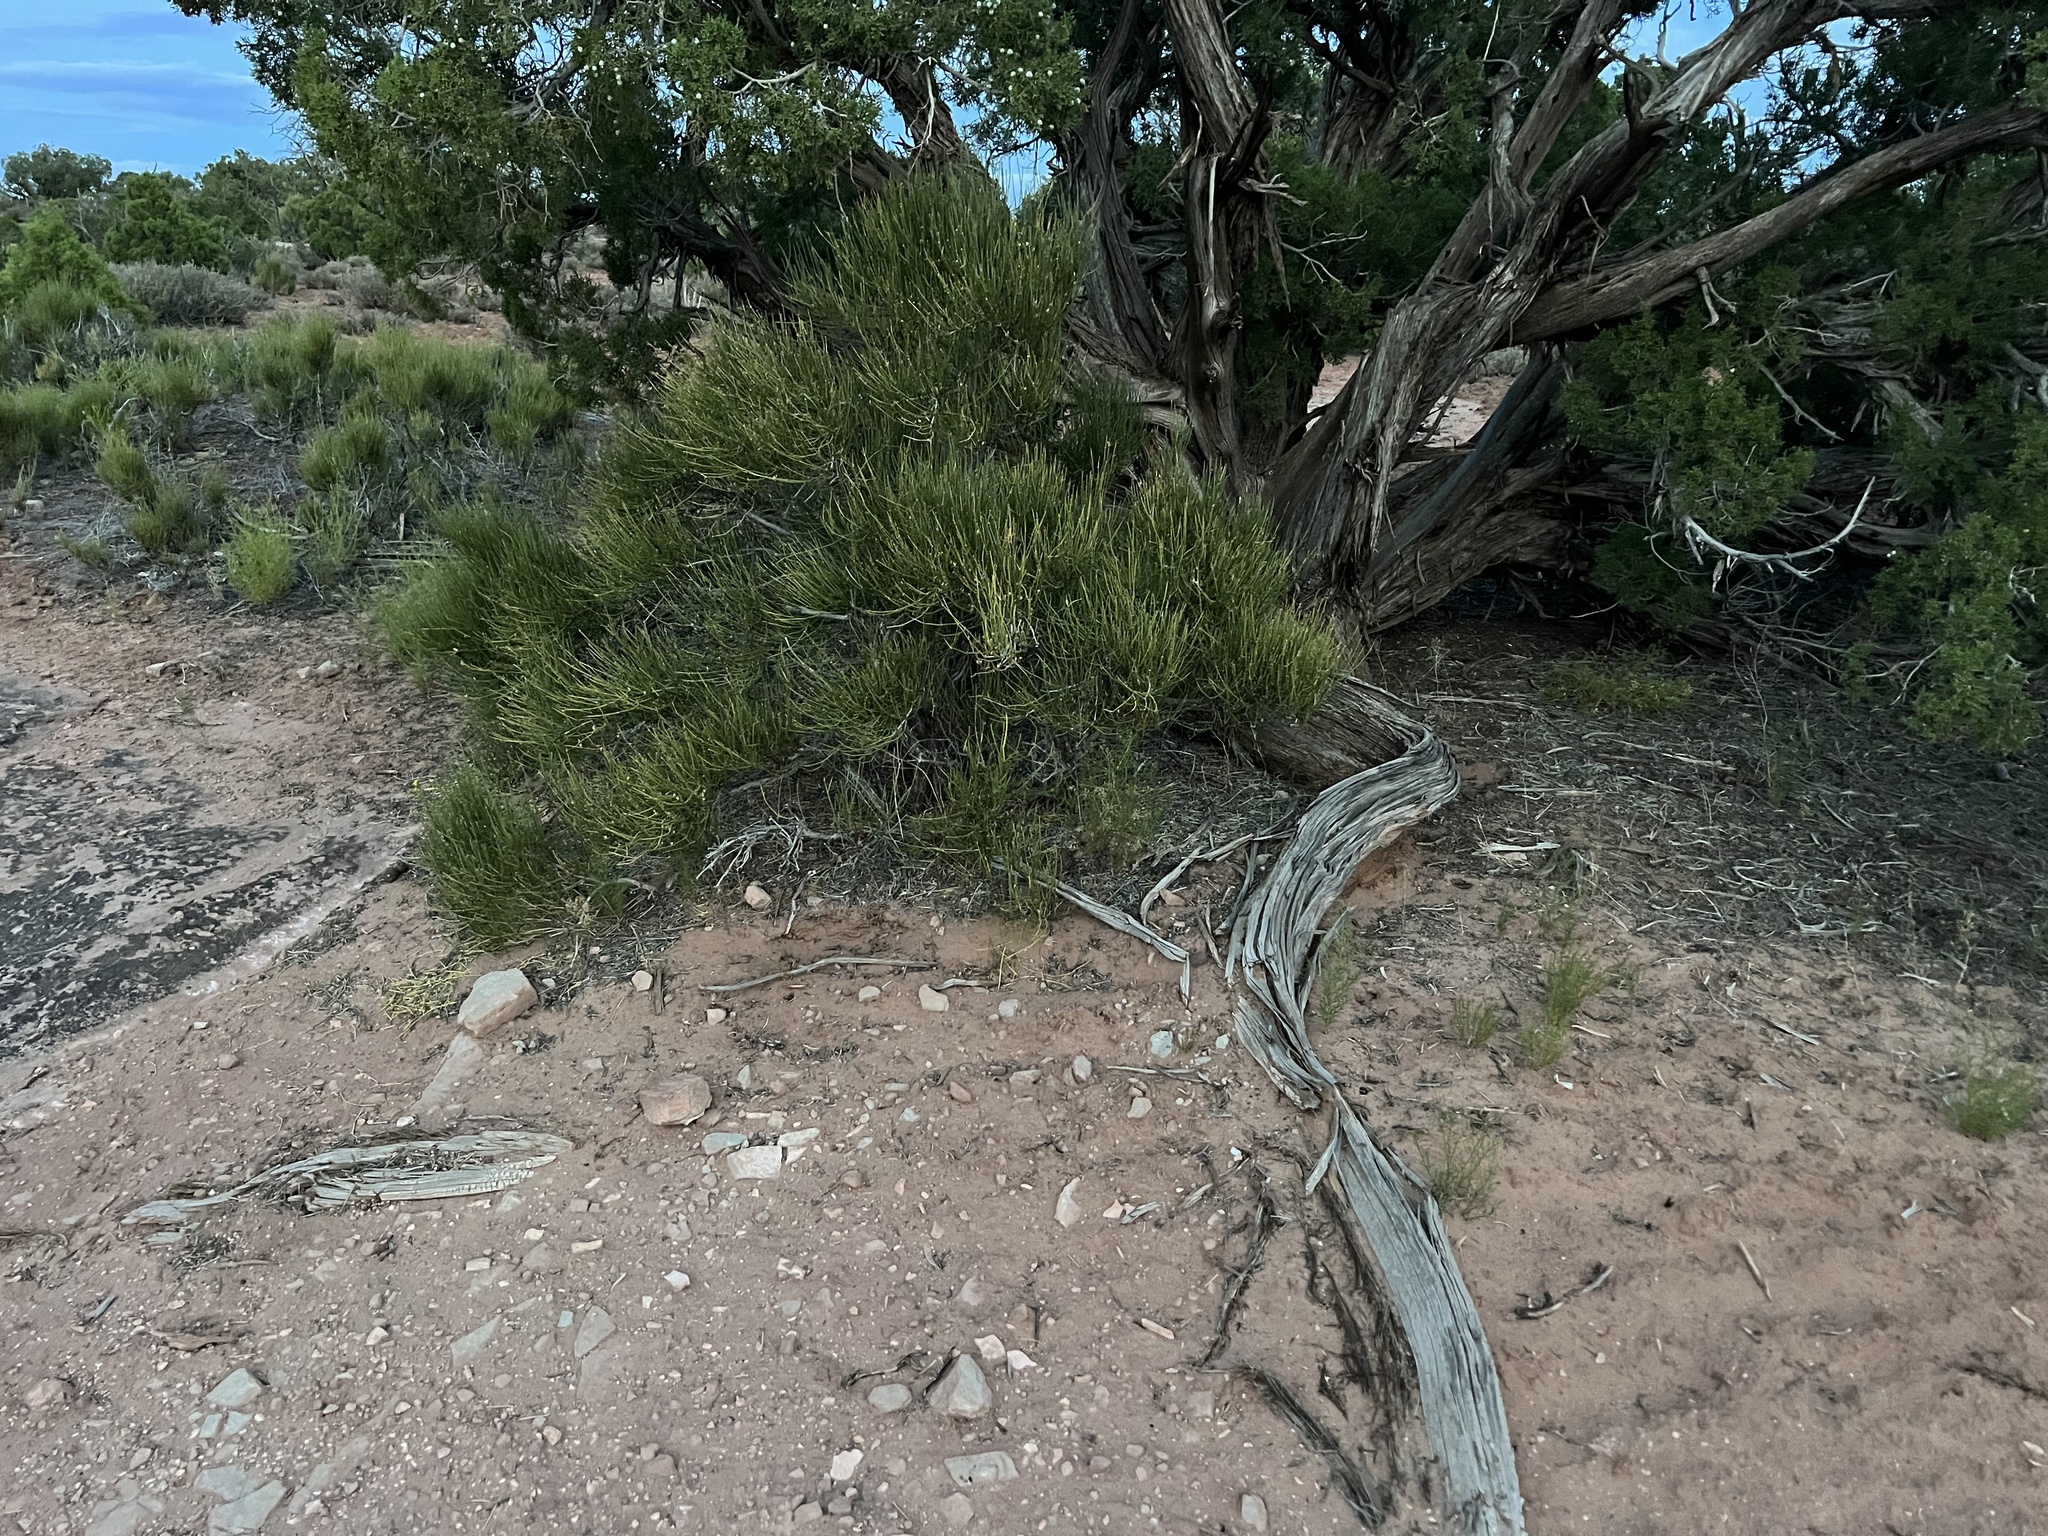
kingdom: Plantae
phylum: Tracheophyta
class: Gnetopsida
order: Ephedrales
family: Ephedraceae
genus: Ephedra
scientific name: Ephedra viridis
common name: Green ephedra
